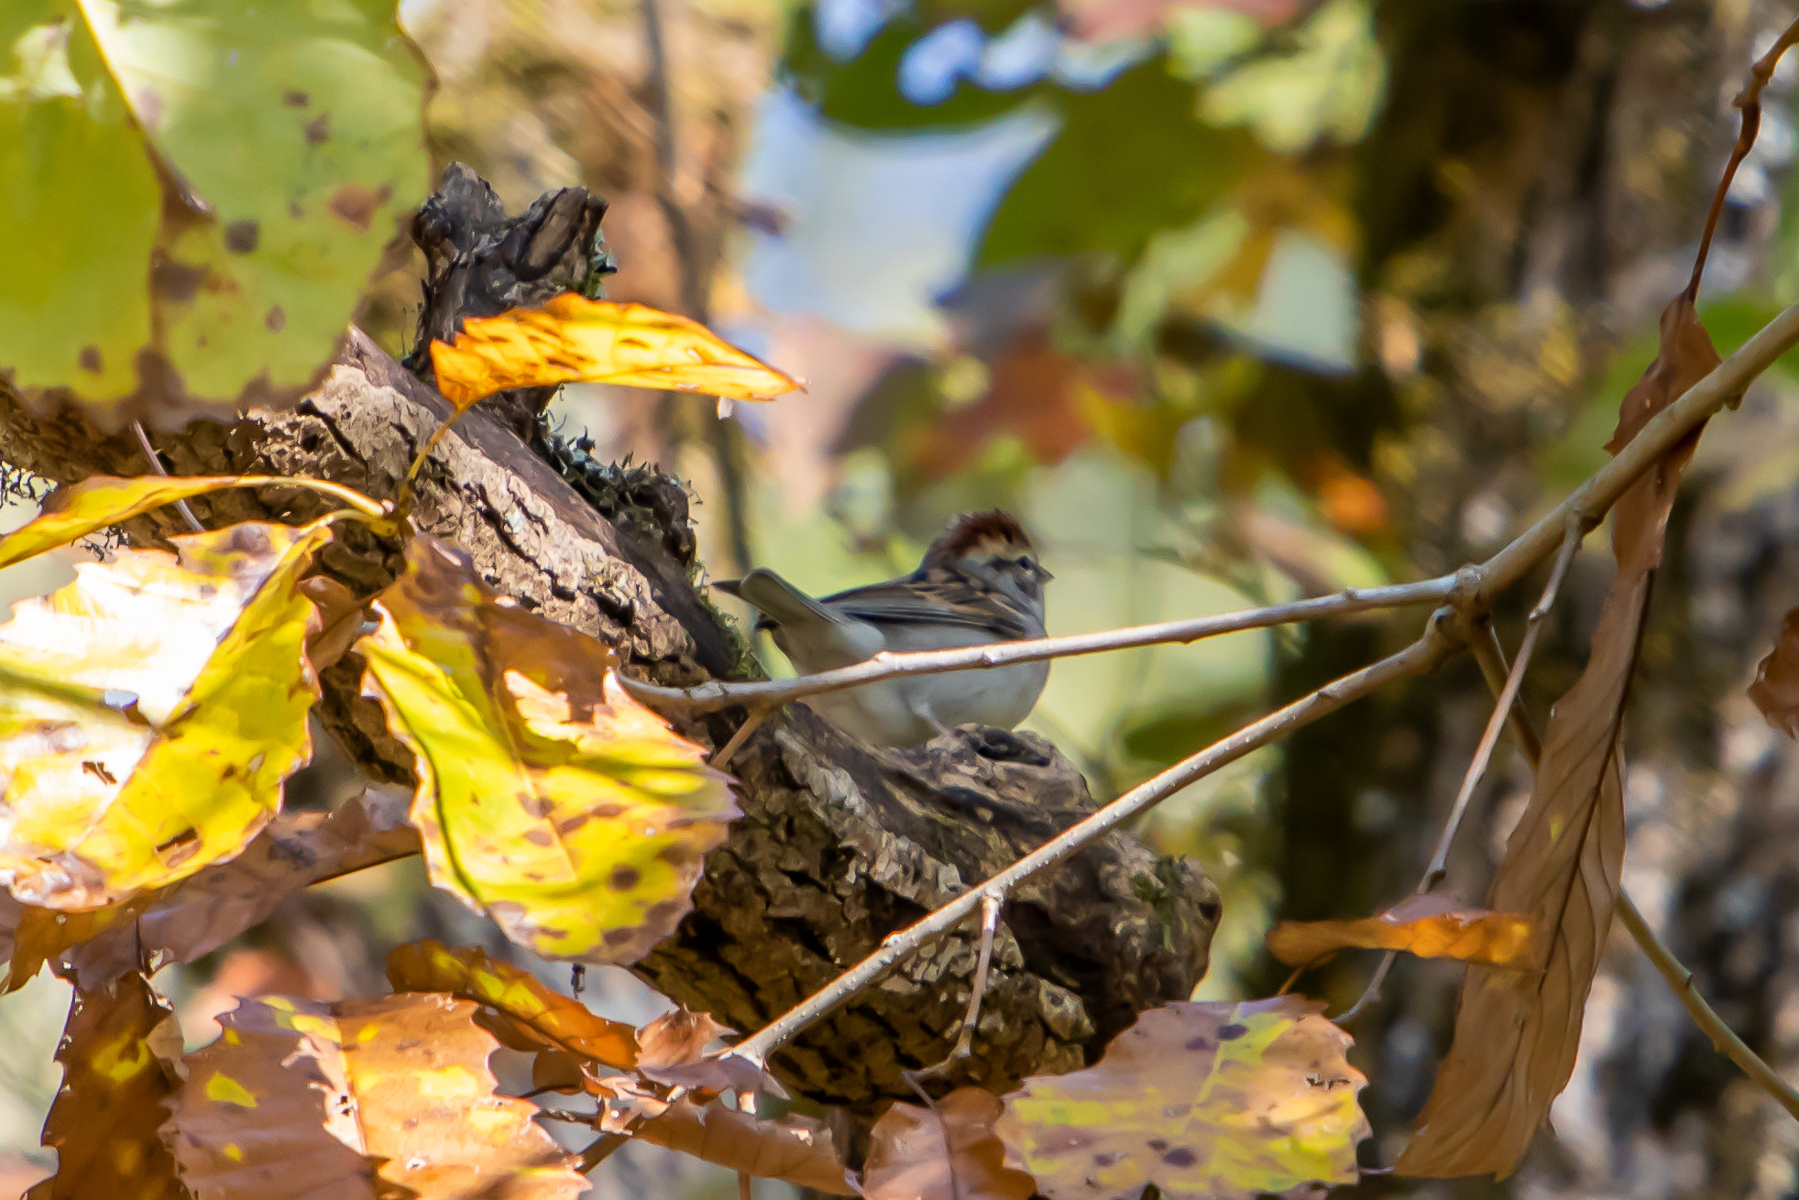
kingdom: Animalia
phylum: Chordata
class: Aves
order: Passeriformes
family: Passerellidae
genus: Spizella
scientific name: Spizella passerina
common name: Chipping sparrow
